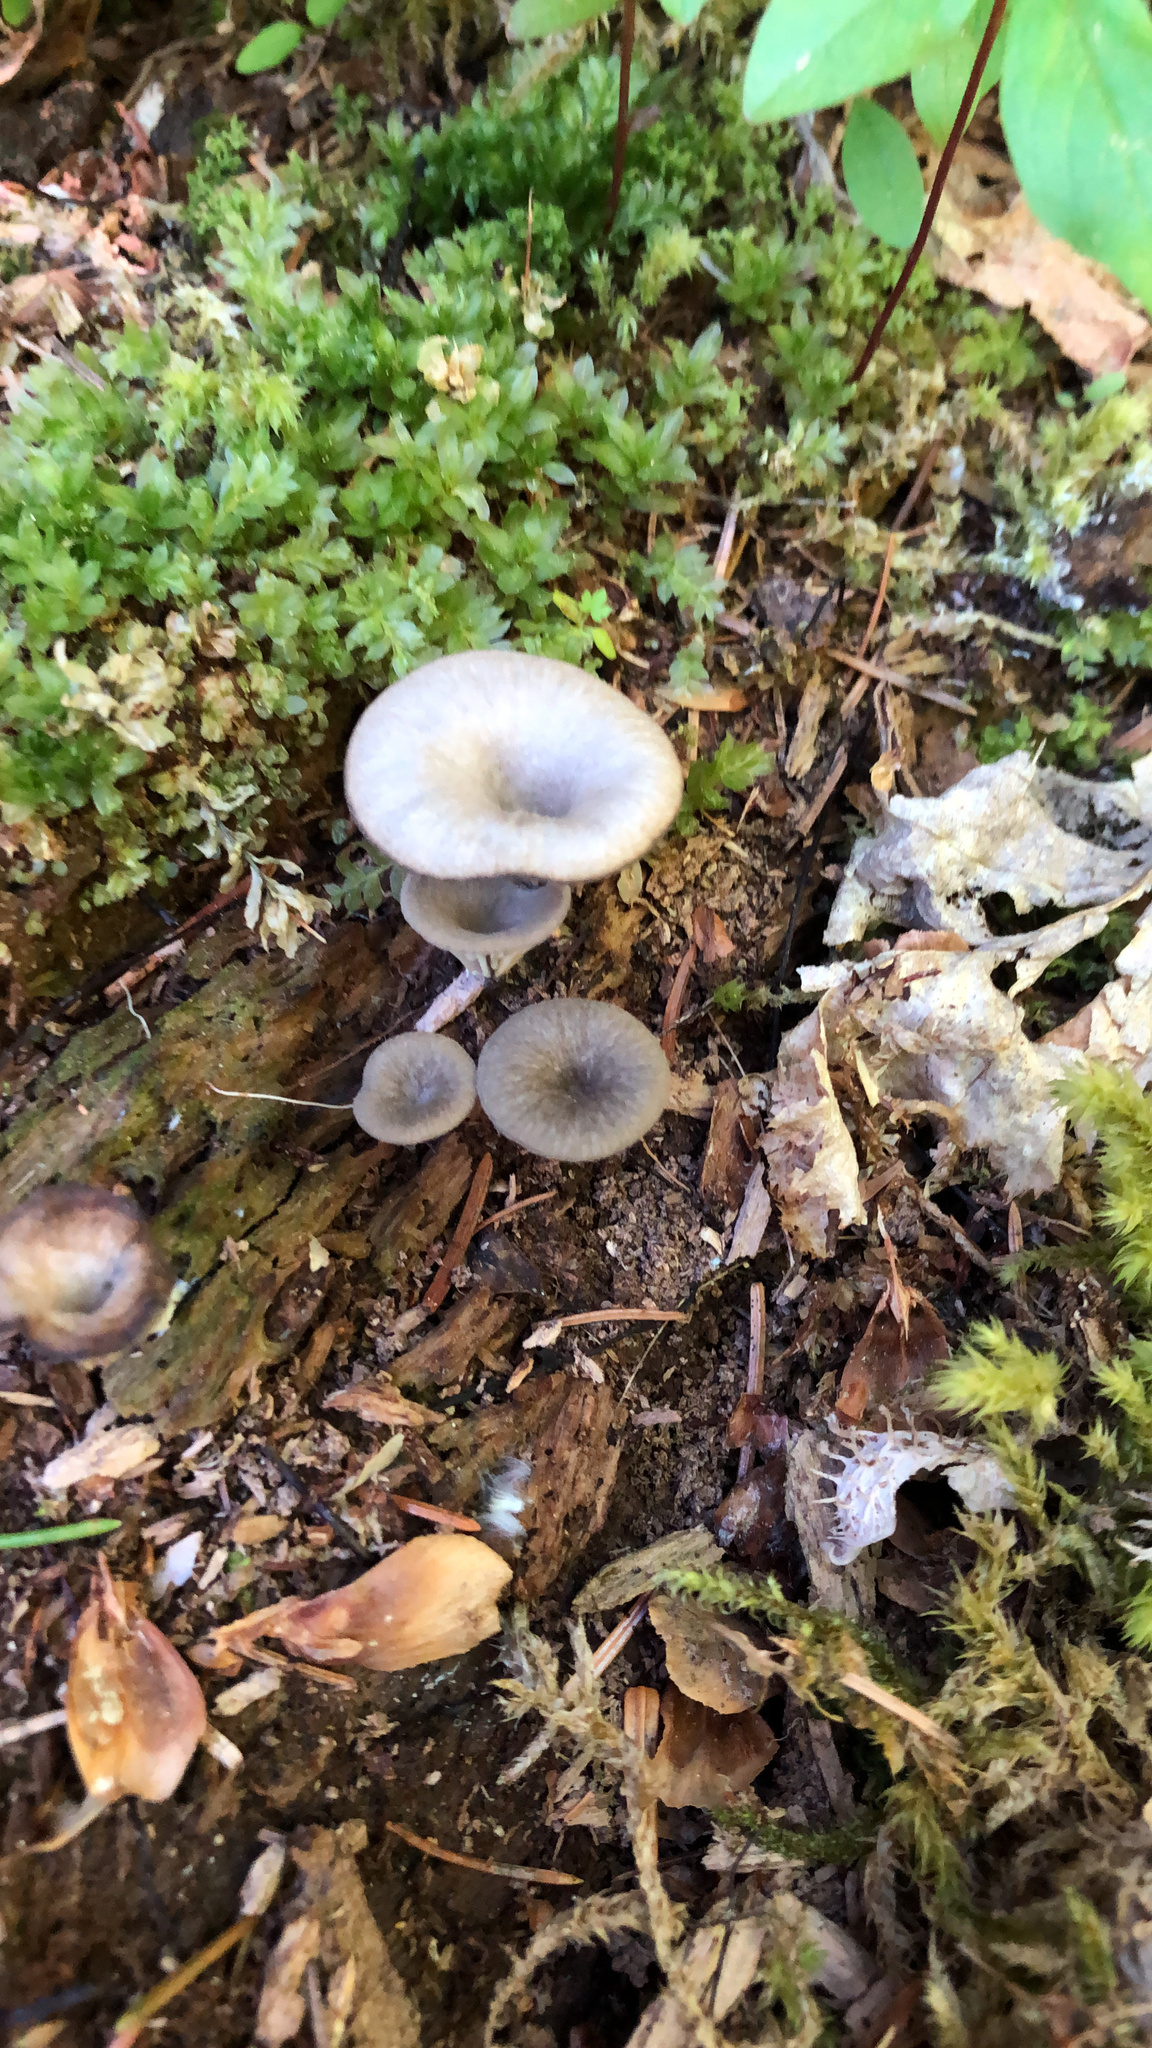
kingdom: Fungi
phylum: Basidiomycota
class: Agaricomycetes
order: Agaricales
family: Hygrophoraceae
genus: Arrhenia
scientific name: Arrhenia epichysium
